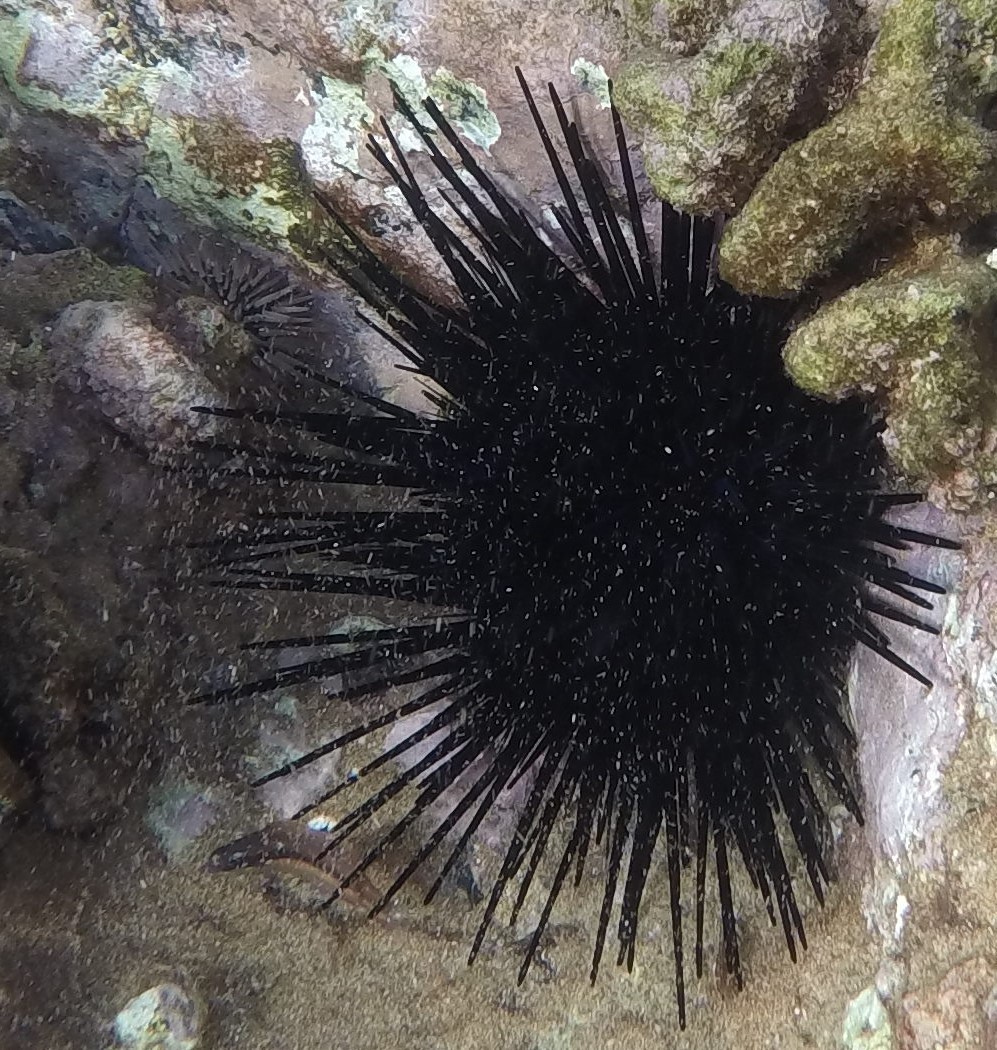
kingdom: Animalia
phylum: Echinodermata
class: Echinoidea
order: Diadematoida
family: Diadematidae
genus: Echinothrix
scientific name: Echinothrix diadema
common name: Schwarzer diademseeigel
